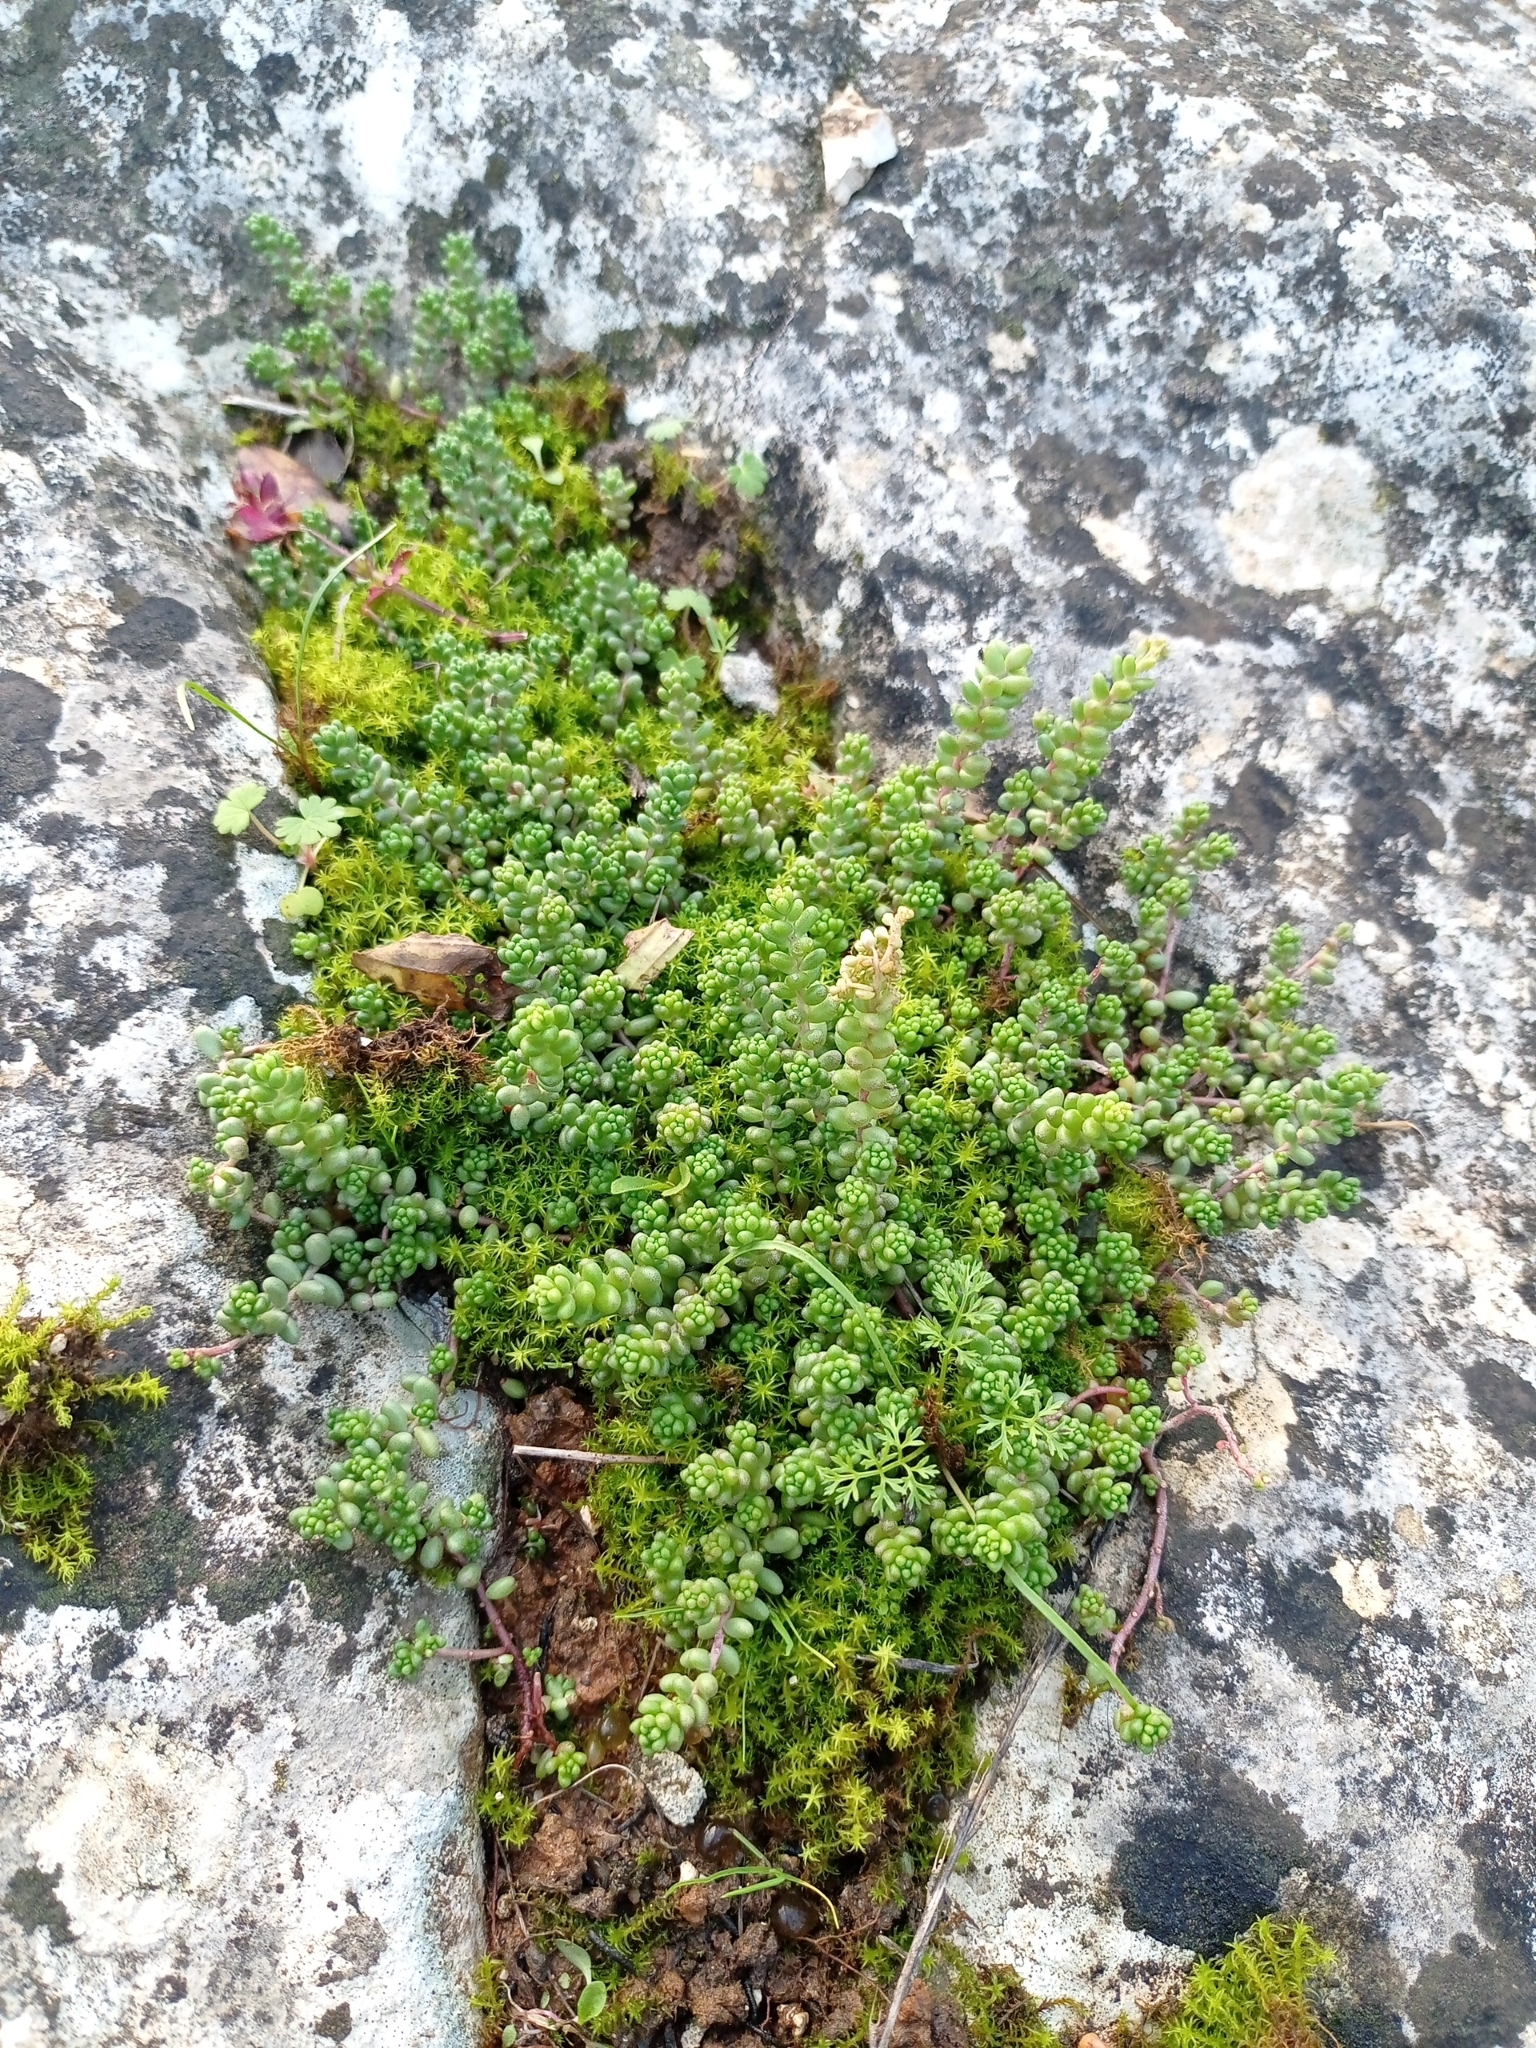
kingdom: Plantae
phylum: Tracheophyta
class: Magnoliopsida
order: Saxifragales
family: Crassulaceae
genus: Sedum
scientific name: Sedum album
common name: White stonecrop
